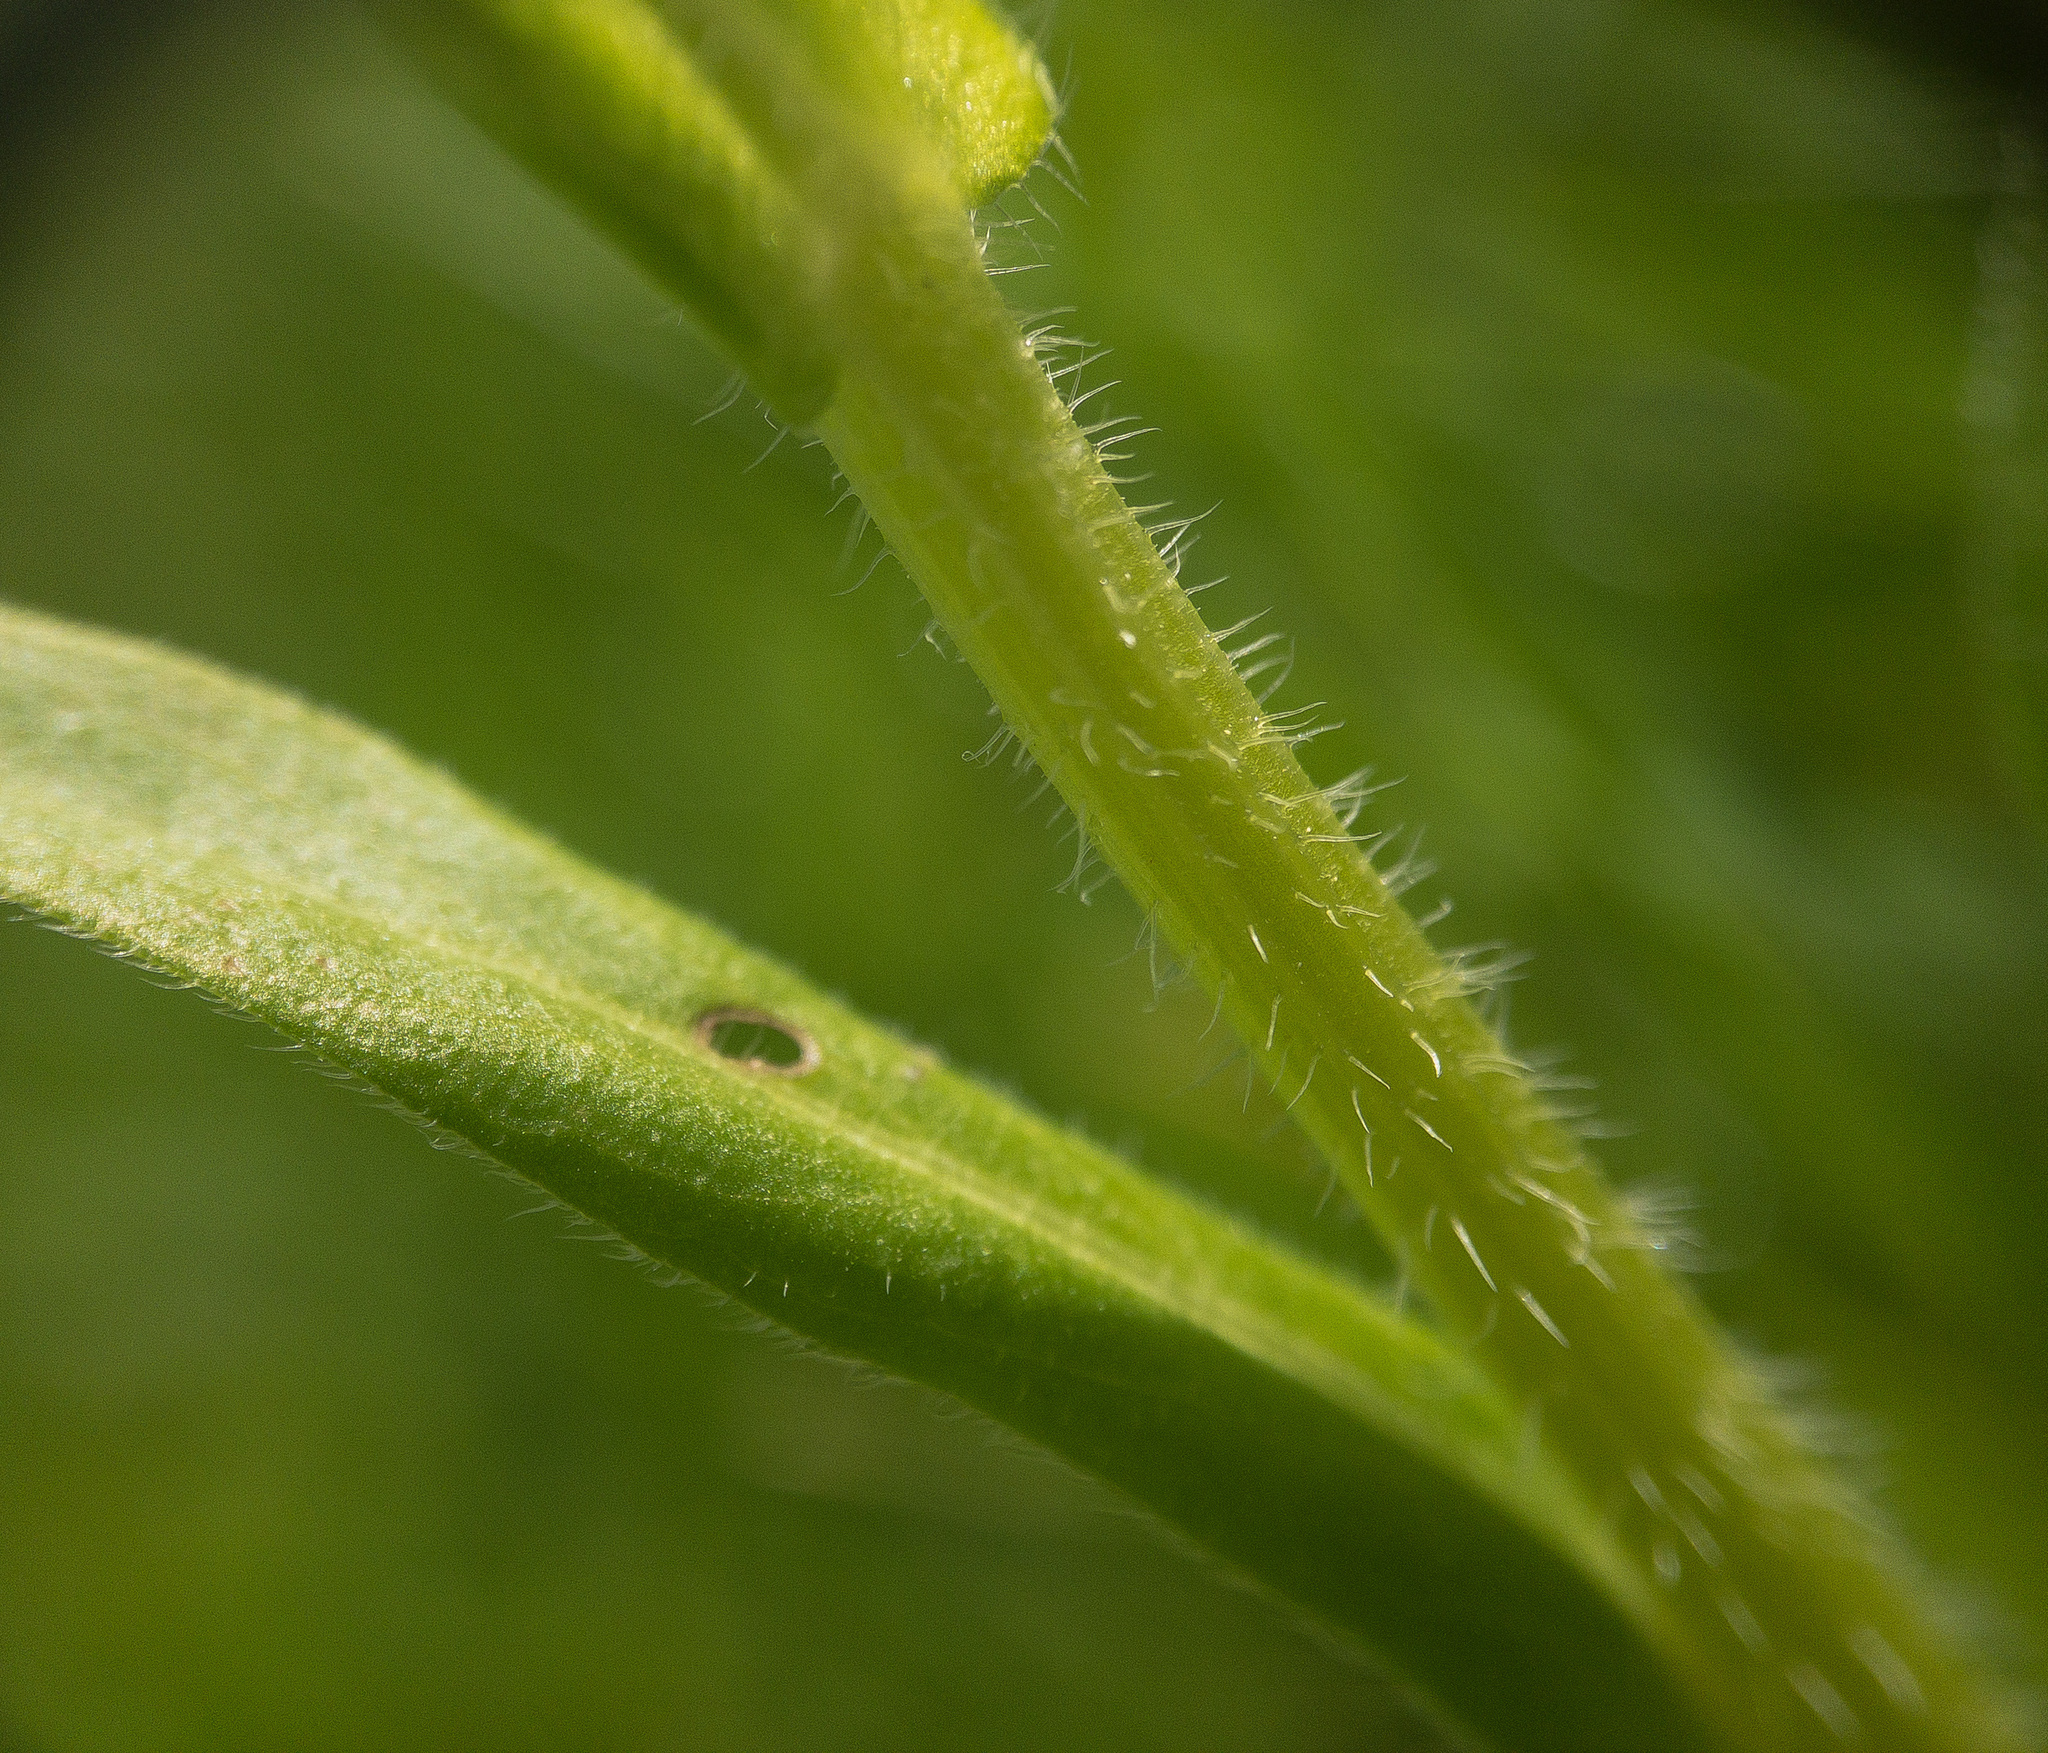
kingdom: Plantae
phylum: Tracheophyta
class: Magnoliopsida
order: Asterales
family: Asteraceae
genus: Erigeron
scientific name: Erigeron philadelphicus
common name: Robin's-plantain
